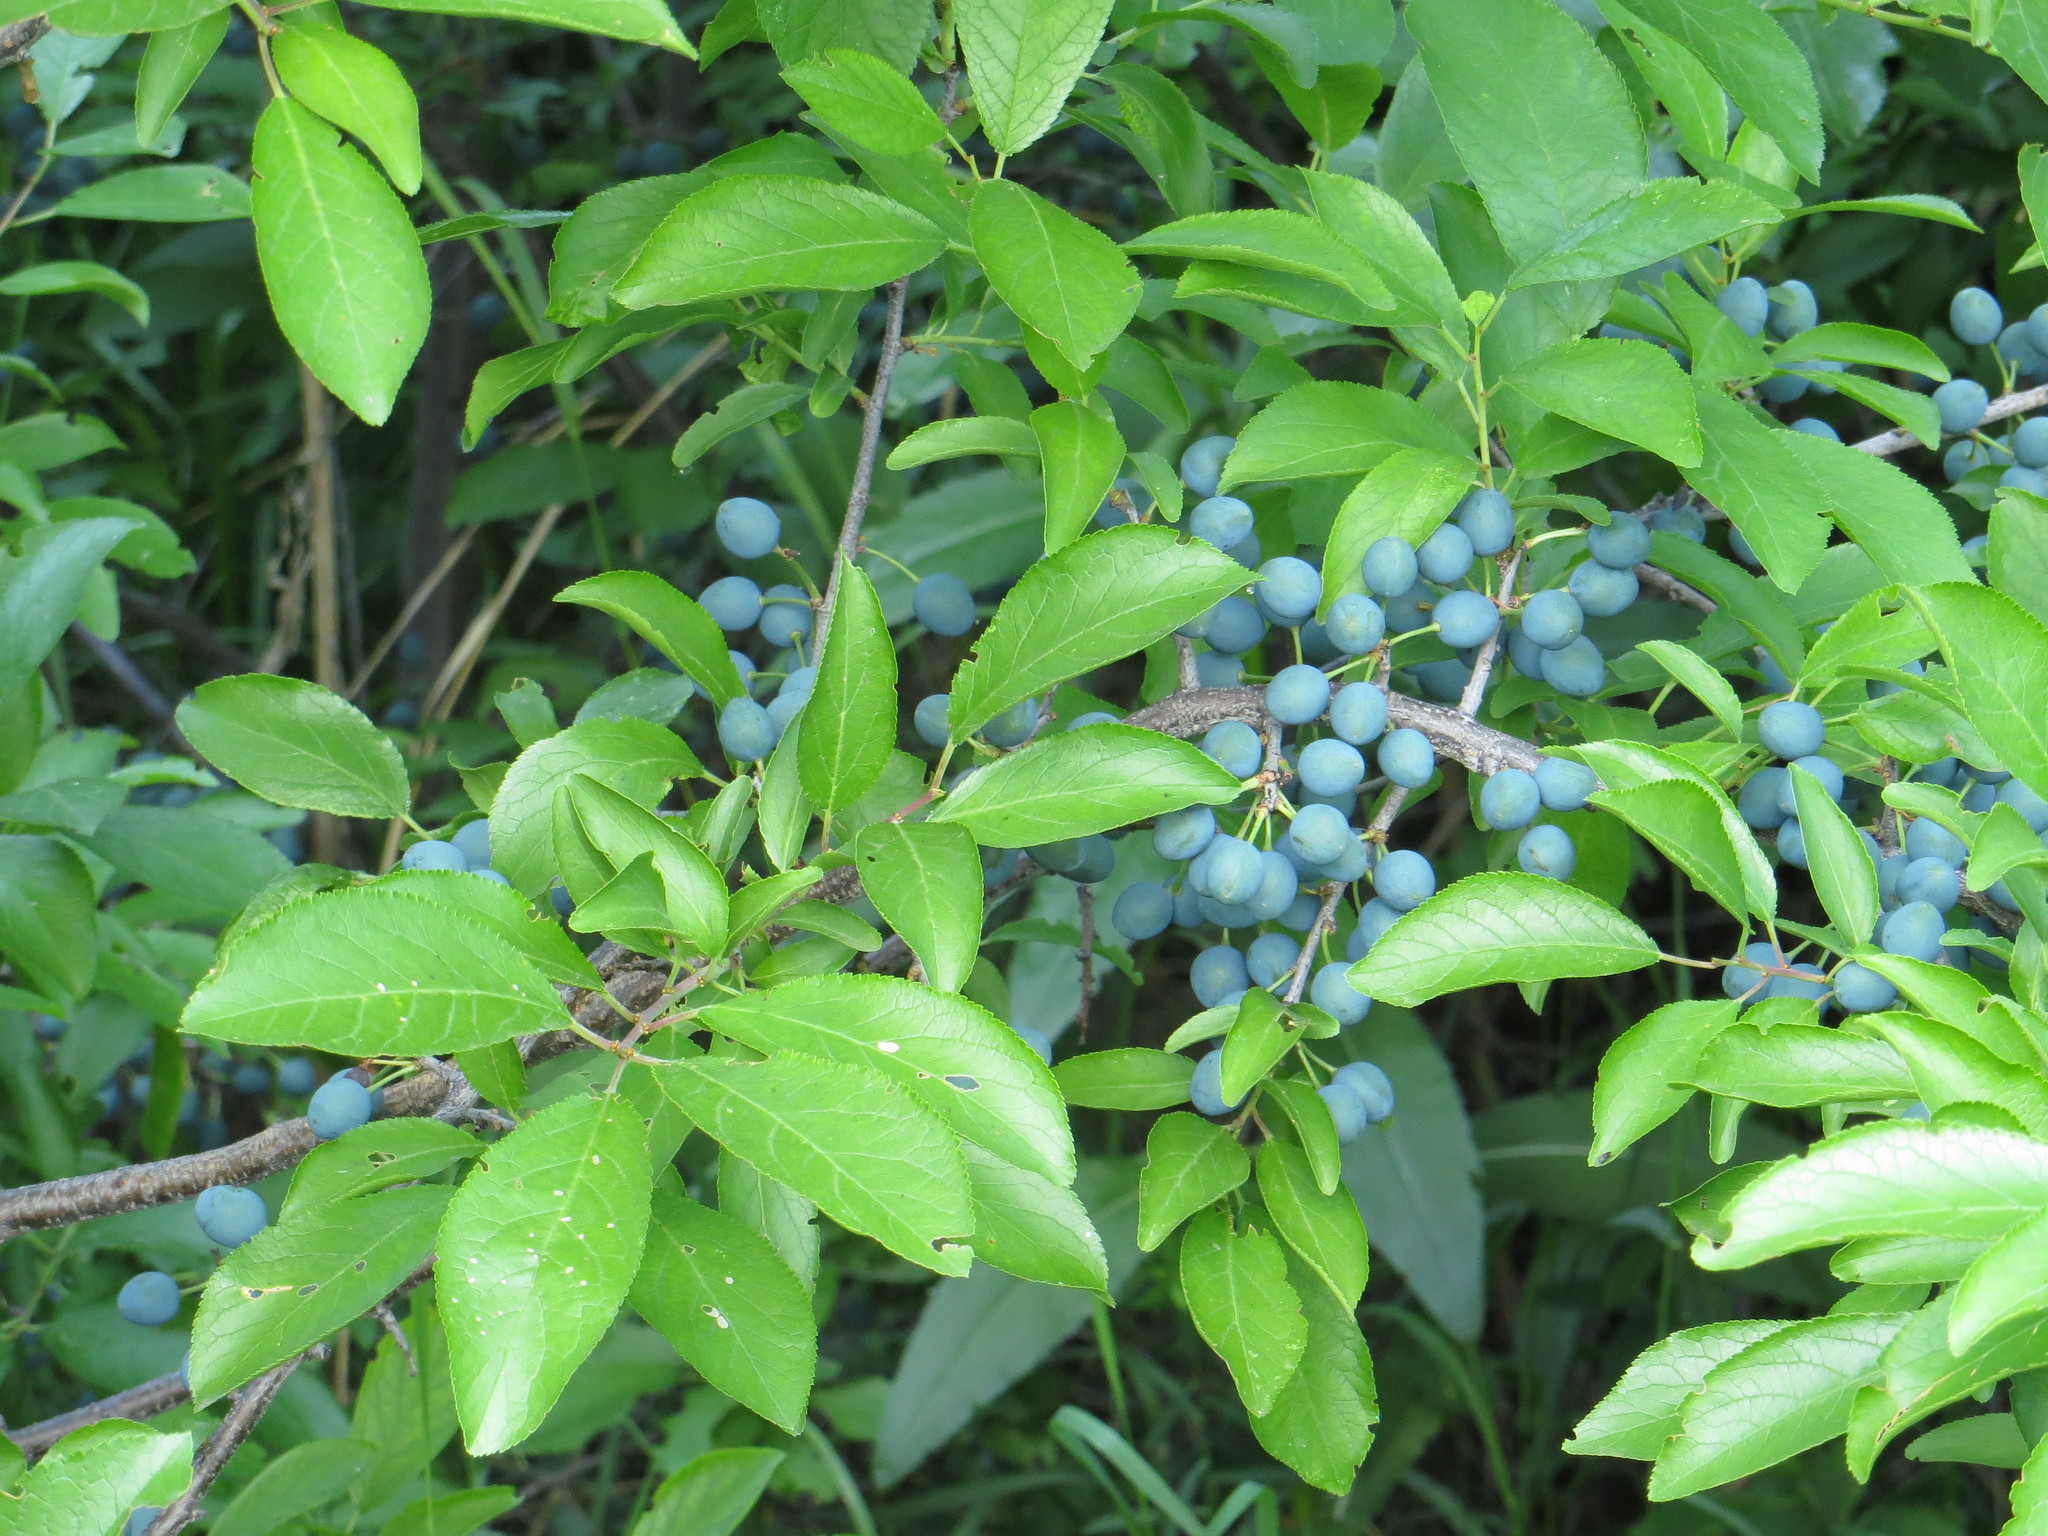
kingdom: Plantae
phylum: Tracheophyta
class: Magnoliopsida
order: Rosales
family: Rosaceae
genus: Prunus
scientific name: Prunus spinosa
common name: Blackthorn
